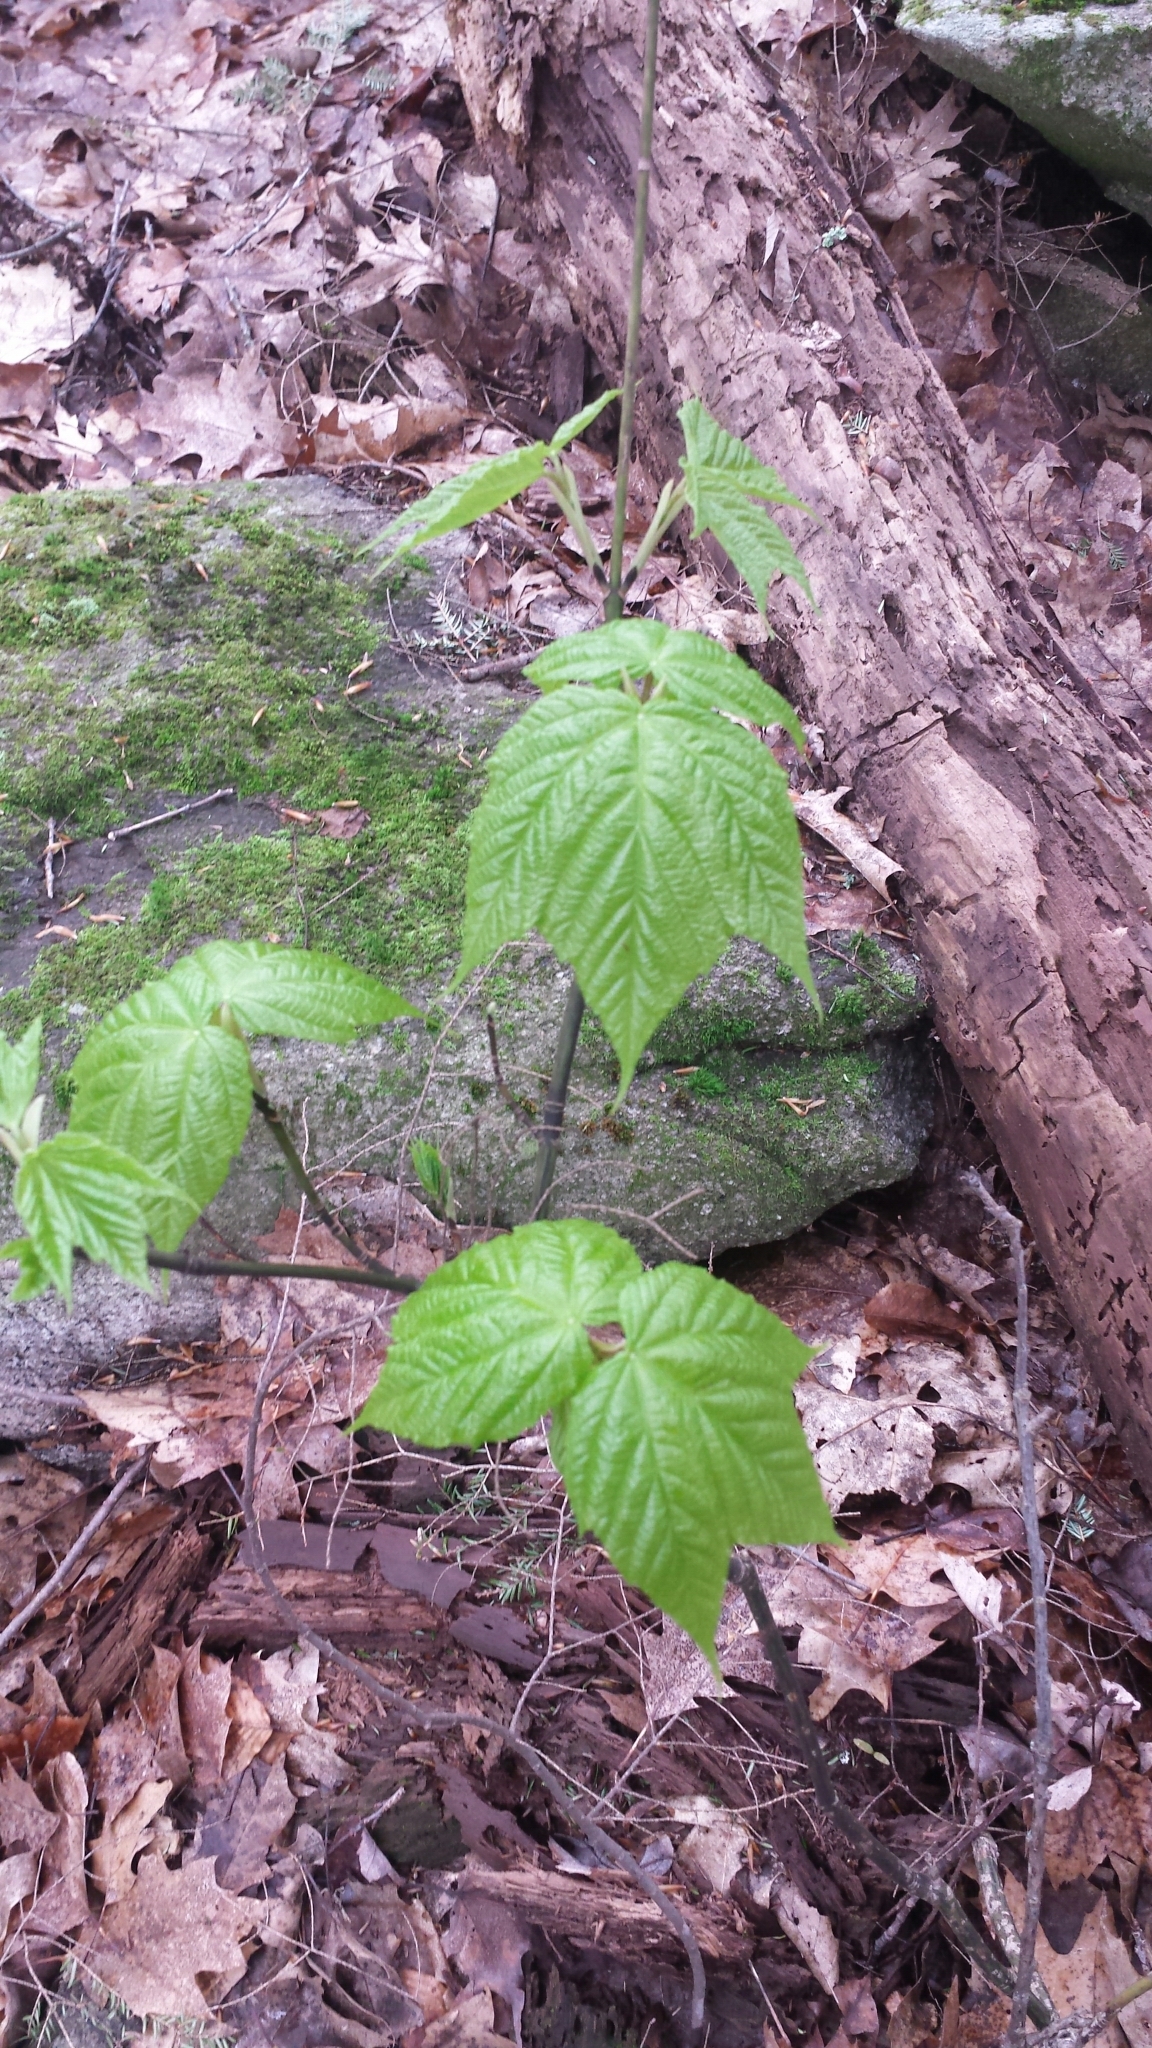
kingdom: Plantae
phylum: Tracheophyta
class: Magnoliopsida
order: Sapindales
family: Sapindaceae
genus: Acer
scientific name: Acer pensylvanicum
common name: Moosewood
